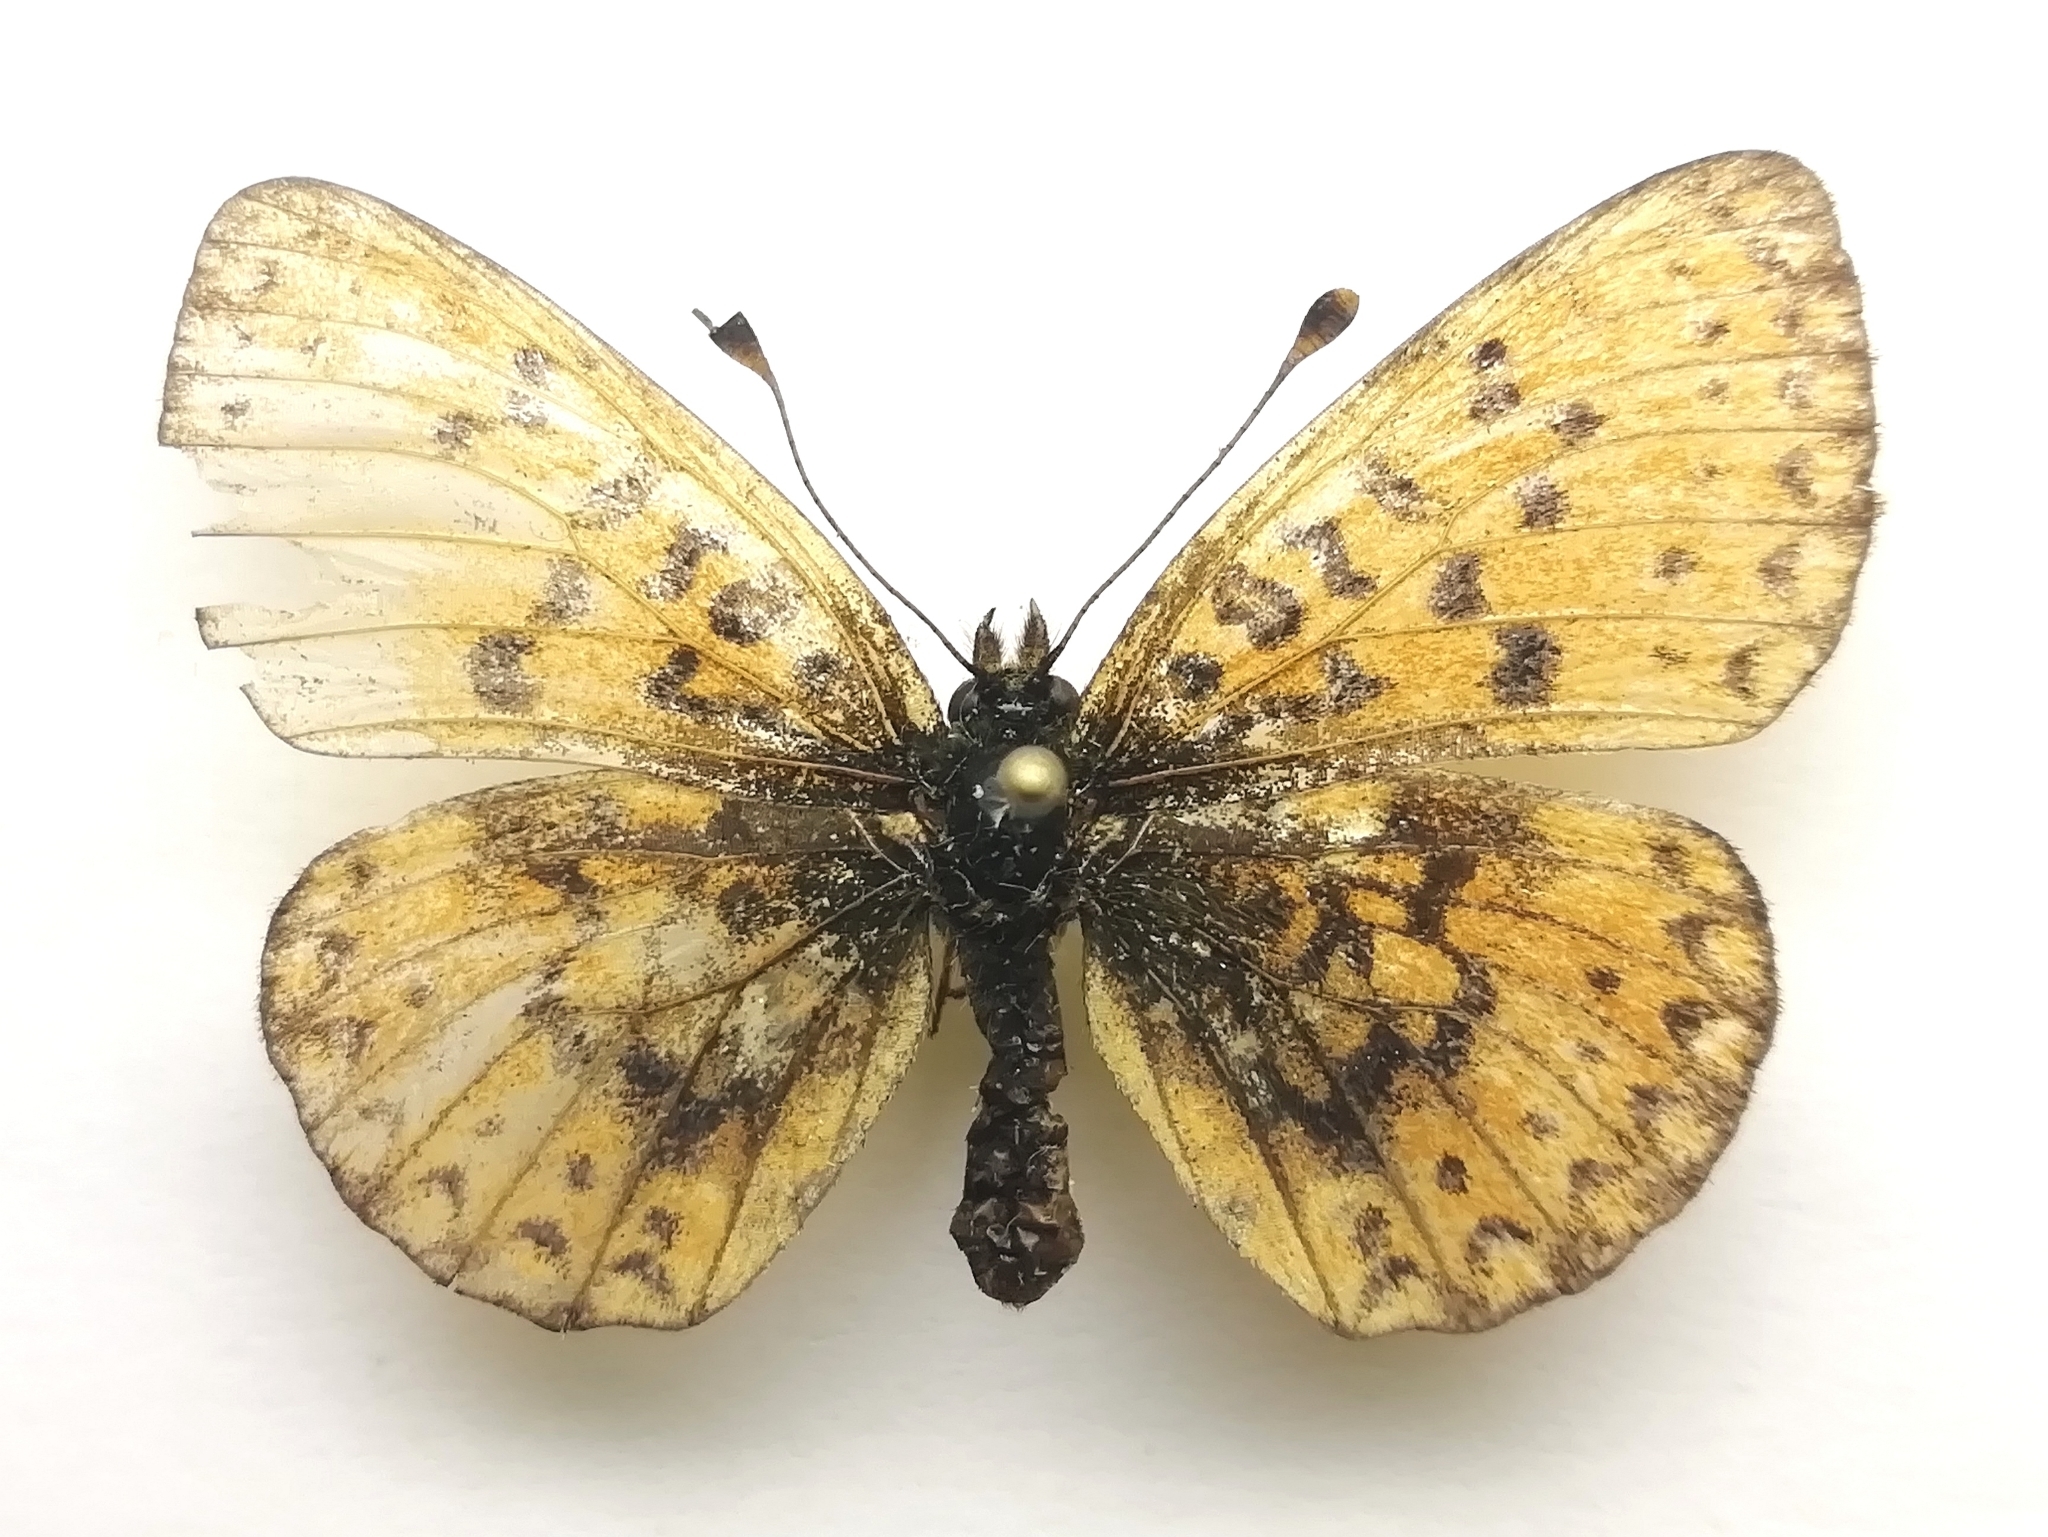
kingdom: Animalia
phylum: Arthropoda
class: Insecta
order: Lepidoptera
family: Nymphalidae
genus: Boloria
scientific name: Boloria selene
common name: Small pearl-bordered fritillary
